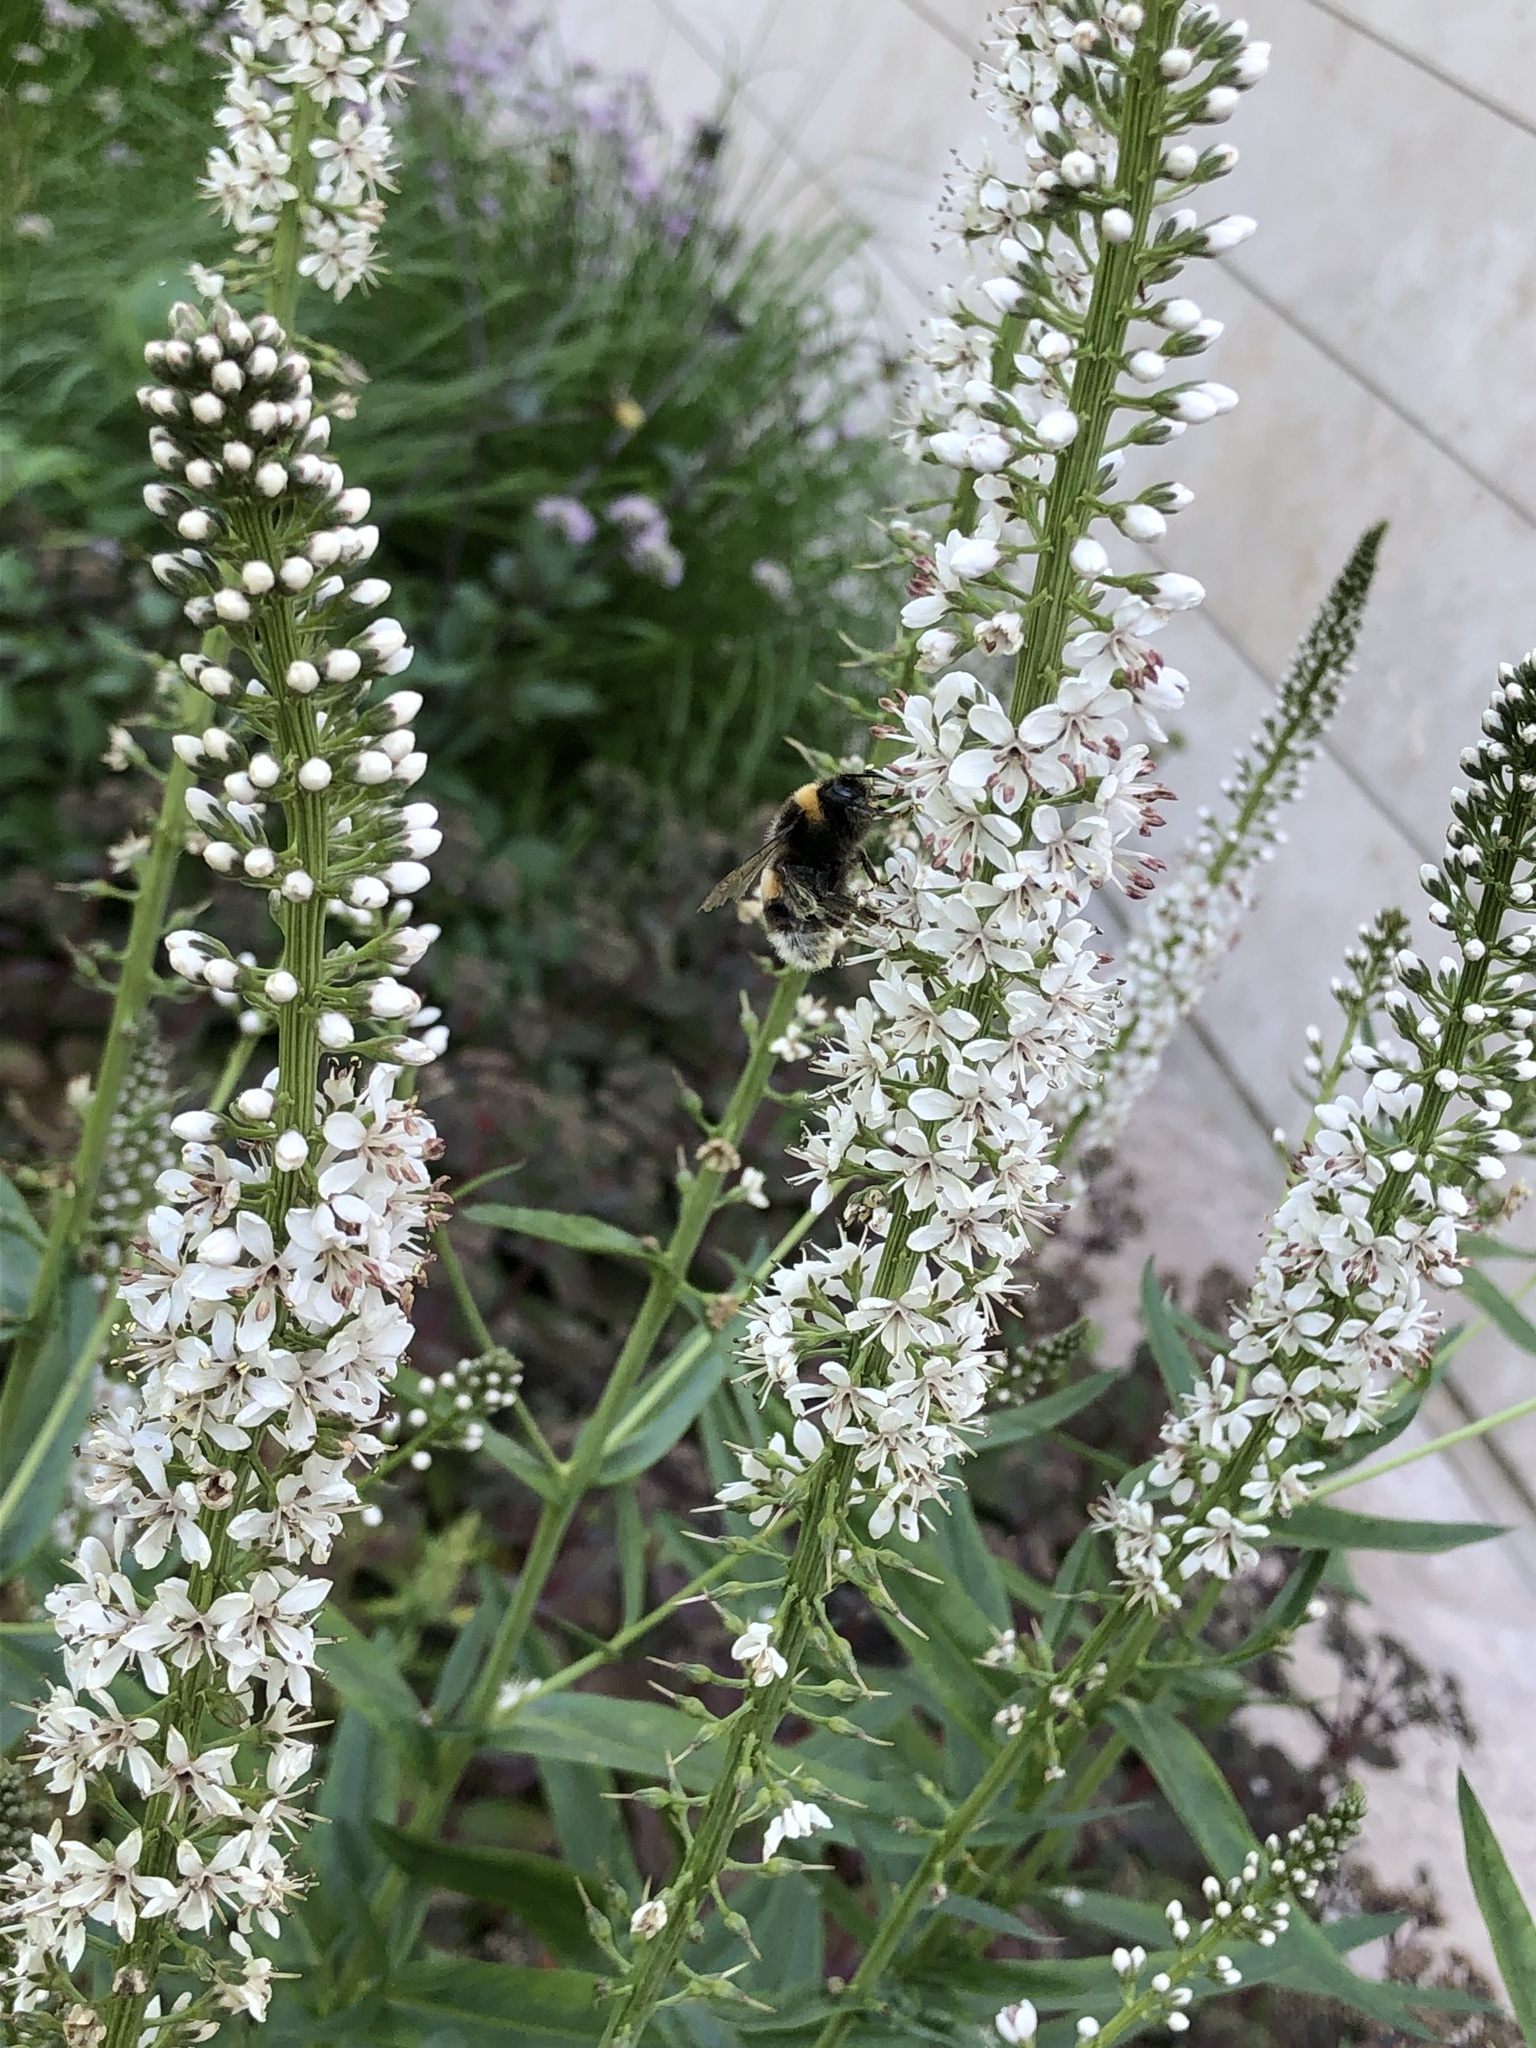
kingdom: Animalia
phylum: Arthropoda
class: Insecta
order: Hymenoptera
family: Apidae
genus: Bombus
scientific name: Bombus terrestris
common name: Buff-tailed bumblebee
